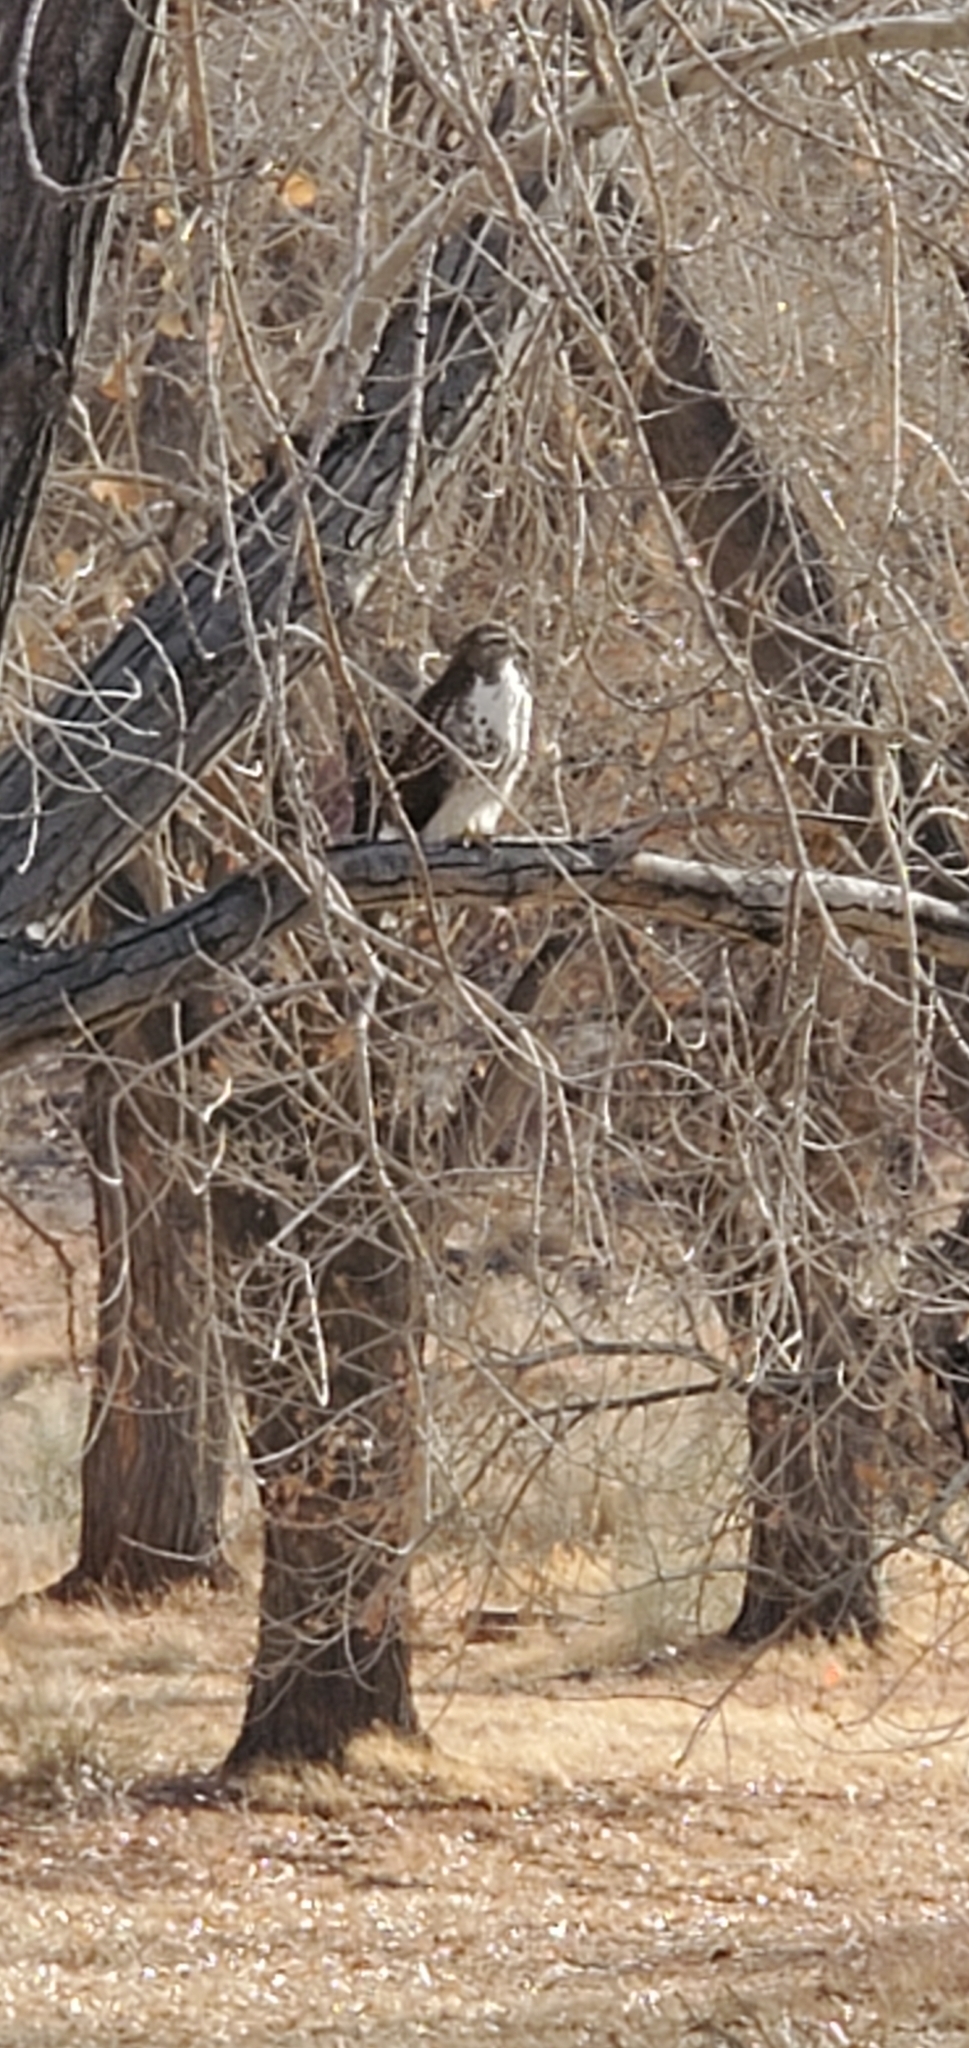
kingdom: Animalia
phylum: Chordata
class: Aves
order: Accipitriformes
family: Accipitridae
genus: Buteo
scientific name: Buteo jamaicensis
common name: Red-tailed hawk
